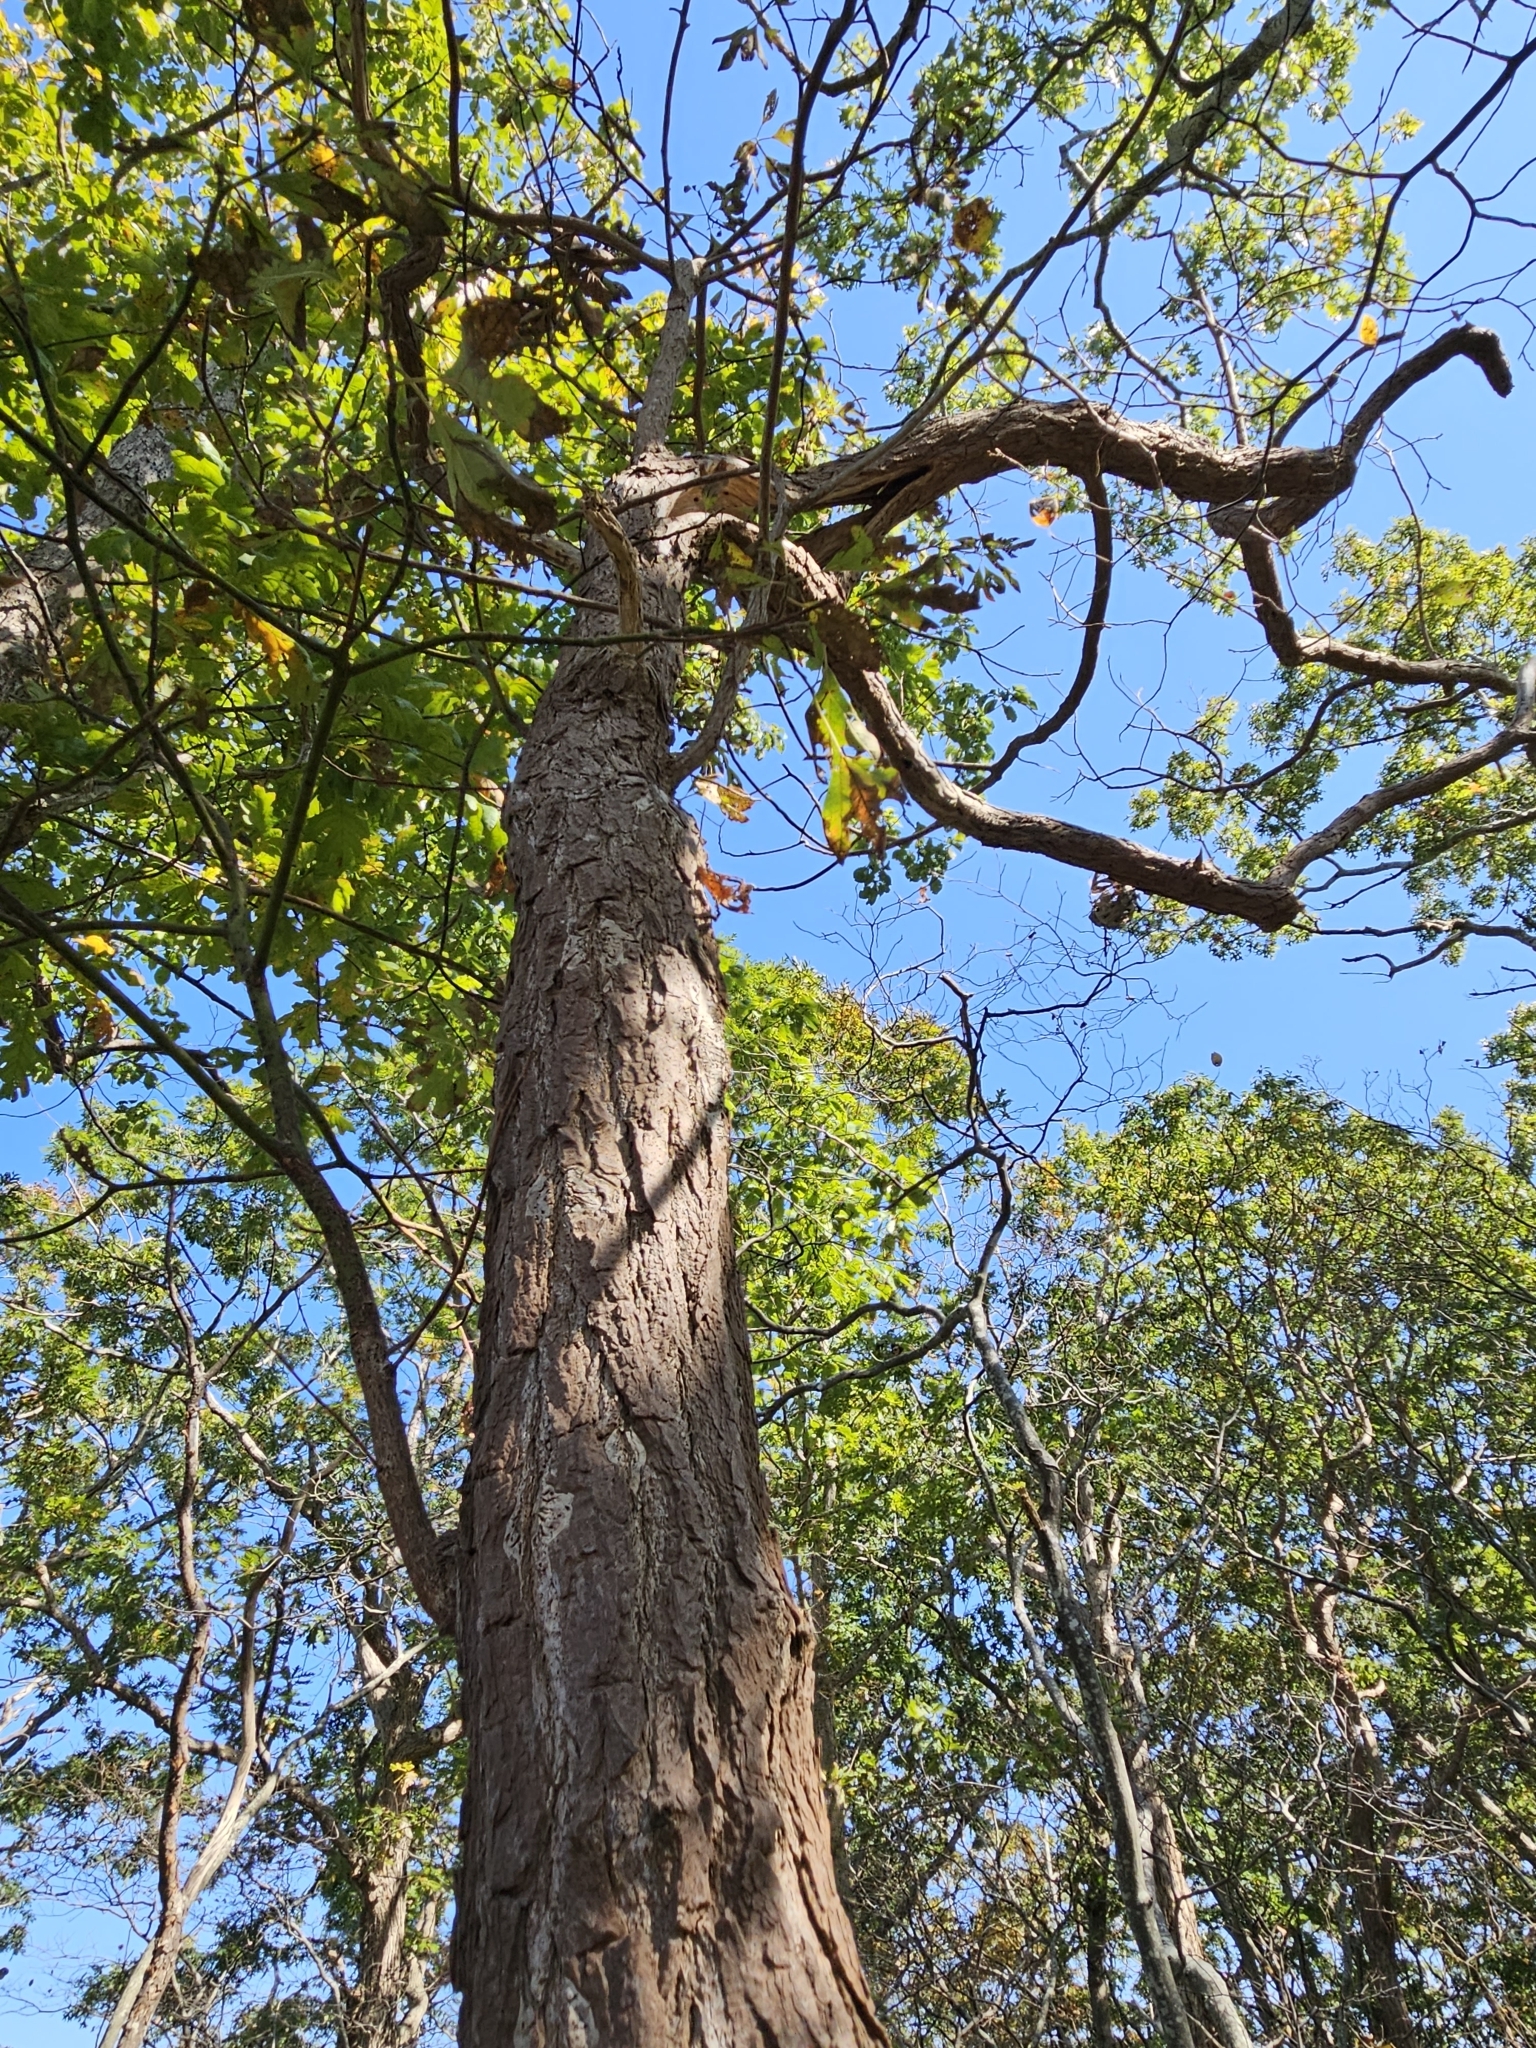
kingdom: Plantae
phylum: Tracheophyta
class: Magnoliopsida
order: Laurales
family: Lauraceae
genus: Sassafras
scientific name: Sassafras albidum
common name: Sassafras
